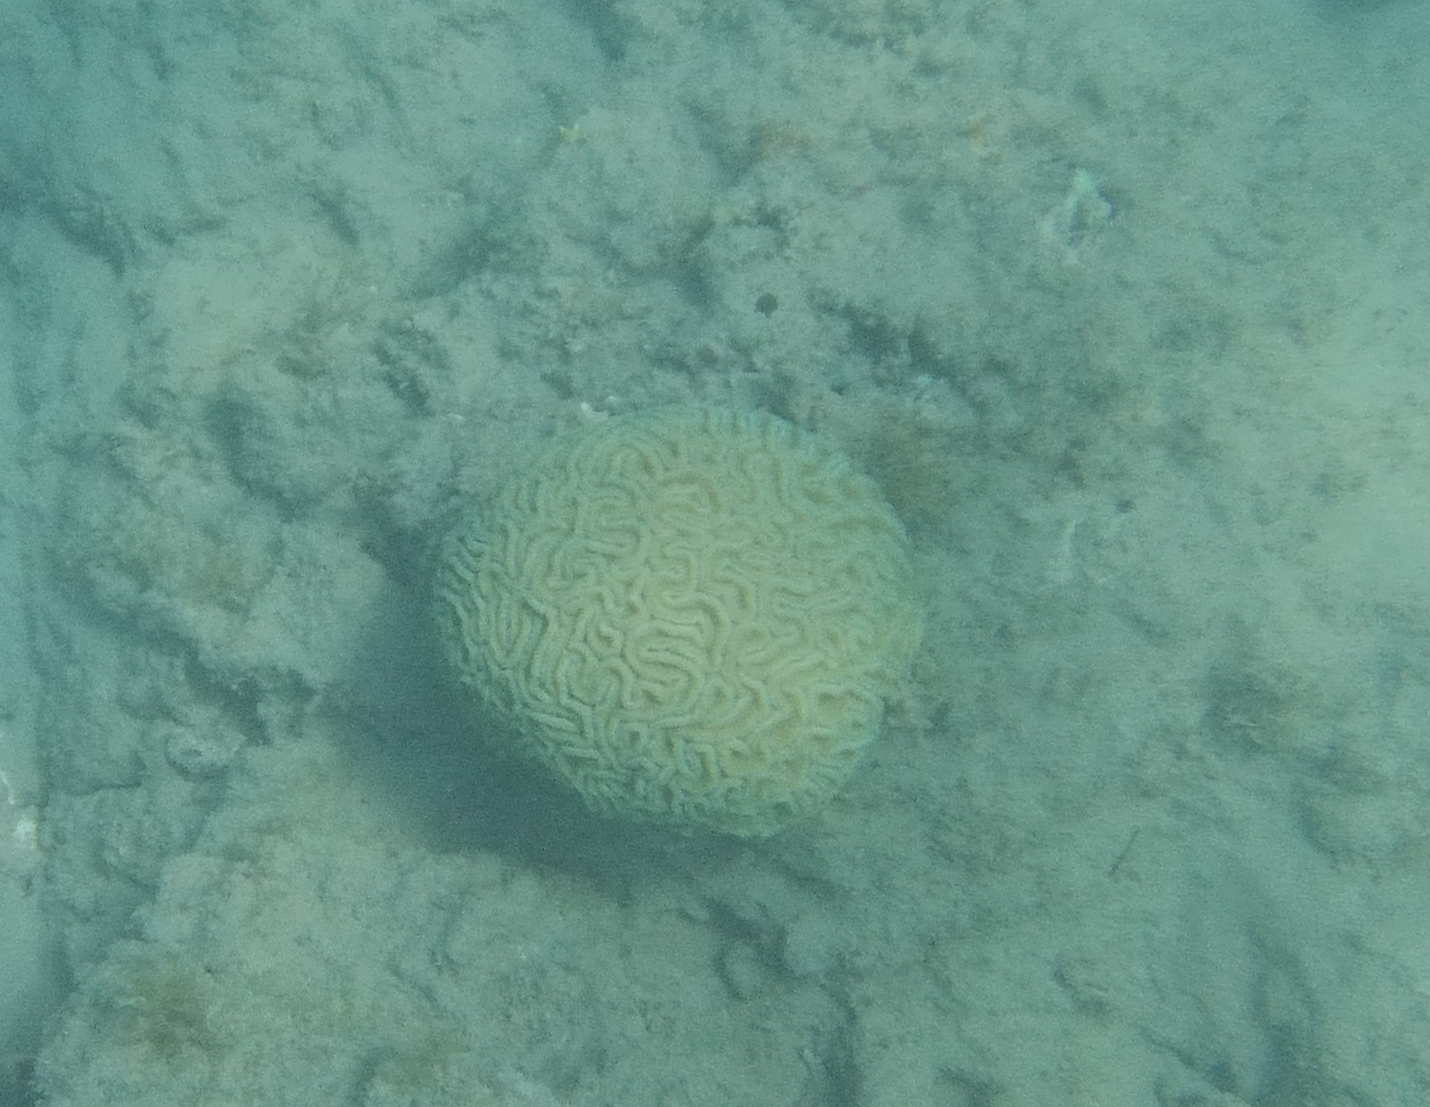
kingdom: Animalia
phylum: Cnidaria
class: Anthozoa
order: Scleractinia
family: Faviidae
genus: Diploria
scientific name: Diploria labyrinthiformis
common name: Grooved brain coral
